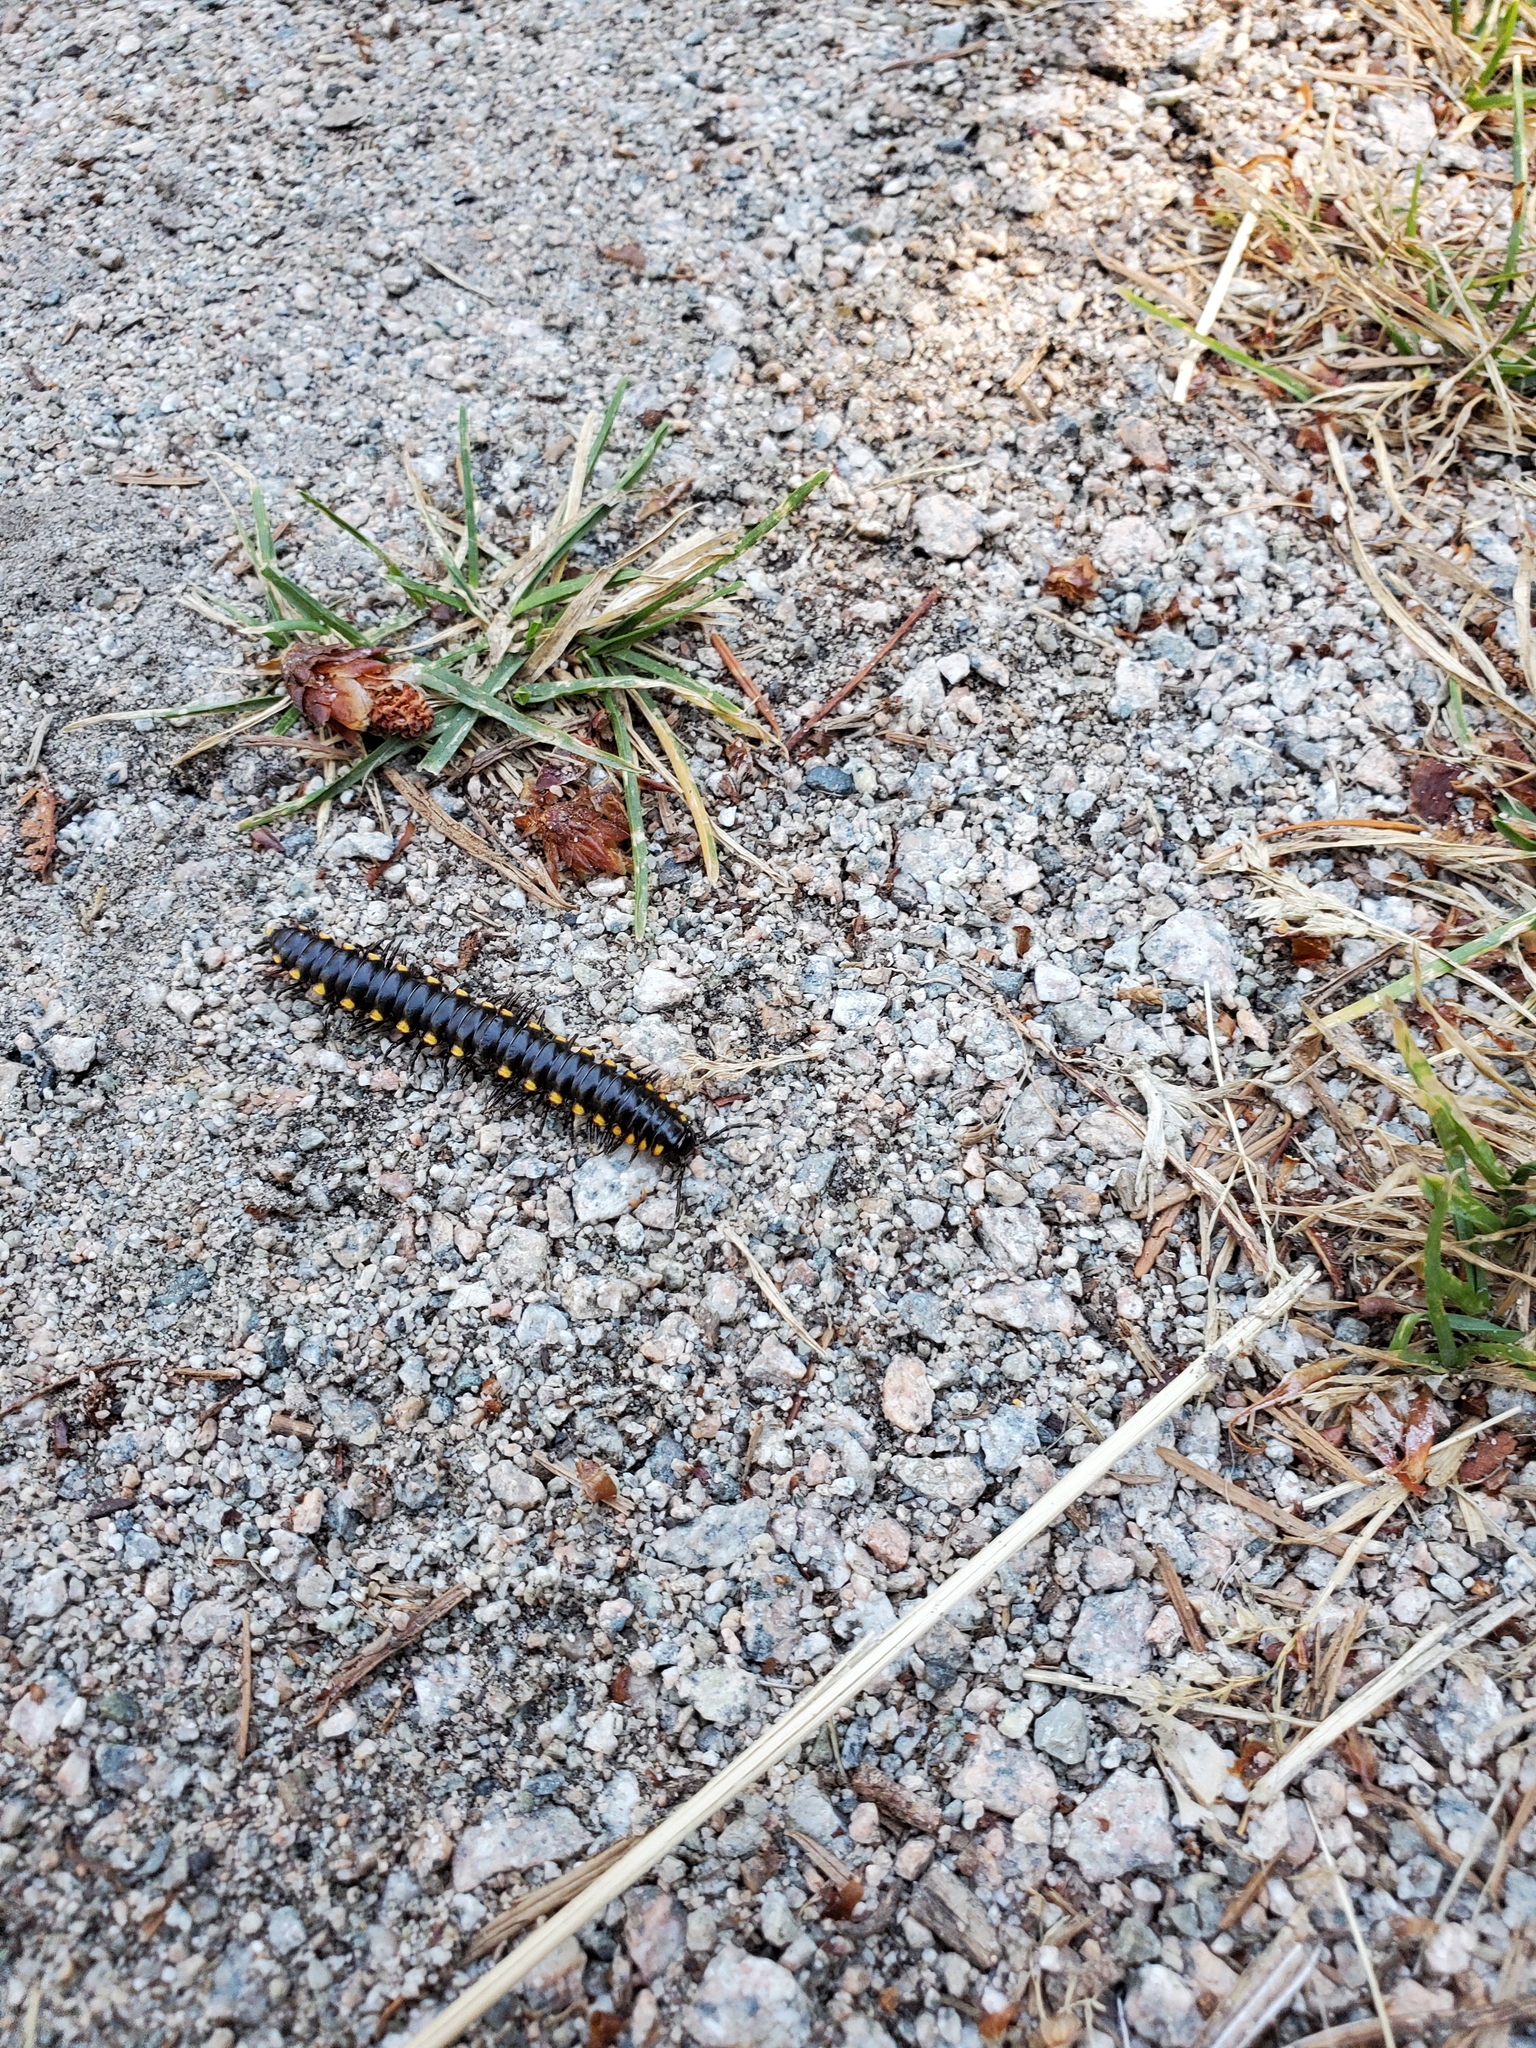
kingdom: Animalia
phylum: Arthropoda
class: Diplopoda
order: Polydesmida
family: Xystodesmidae
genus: Harpaphe
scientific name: Harpaphe haydeniana
